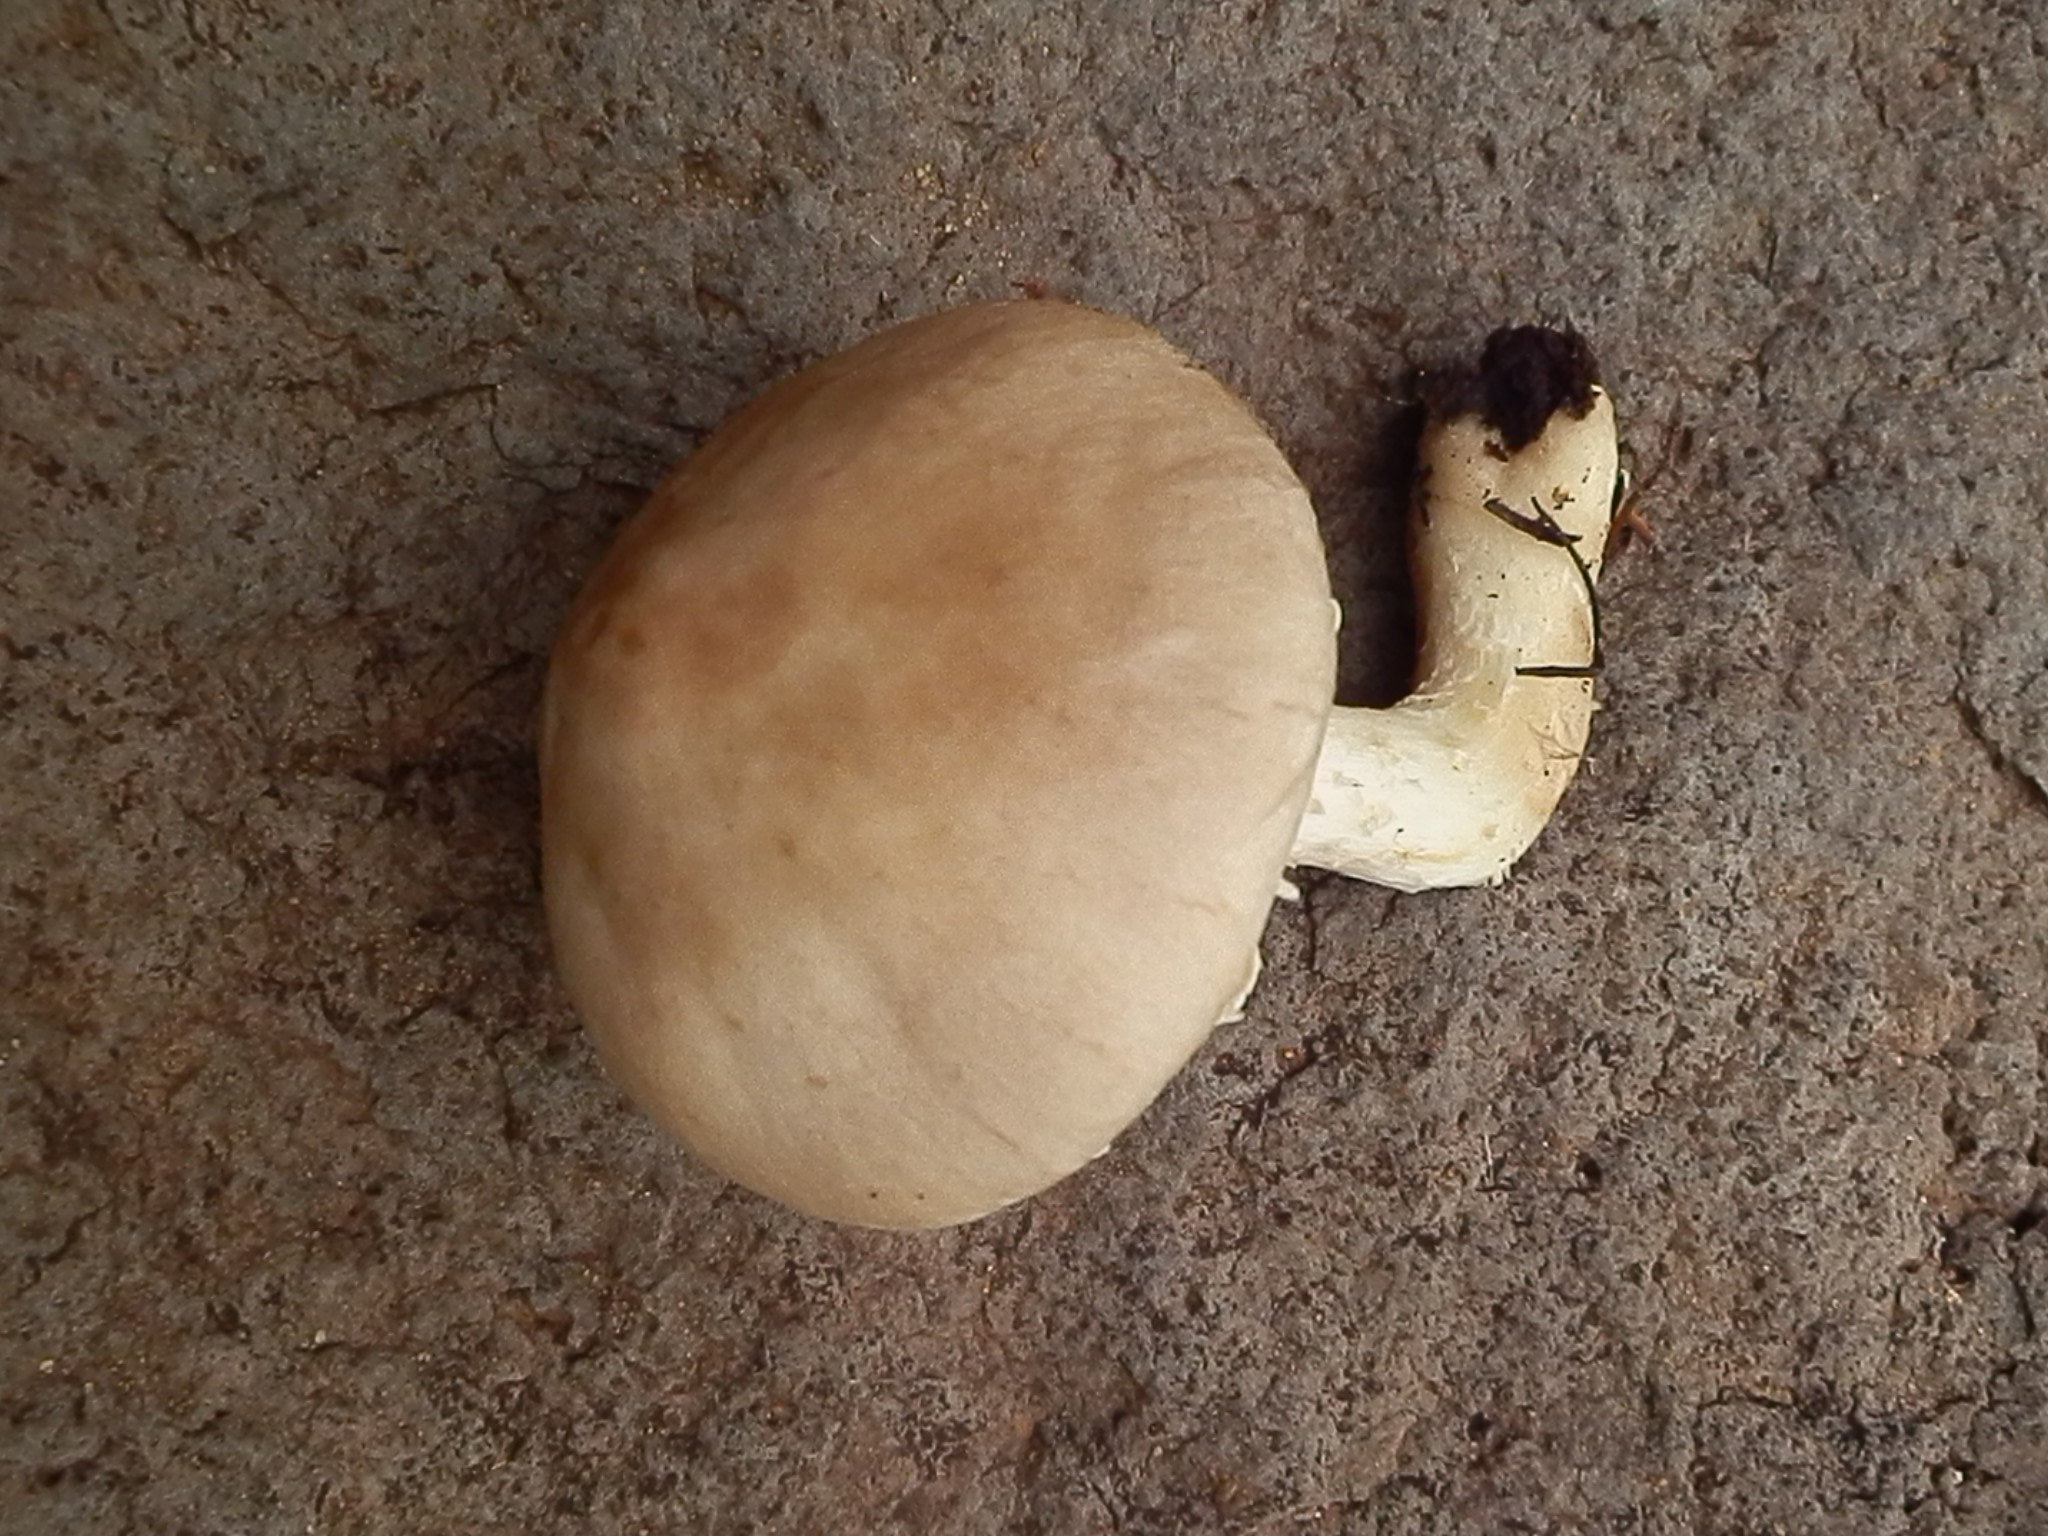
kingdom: Fungi
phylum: Basidiomycota
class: Agaricomycetes
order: Agaricales
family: Agaricaceae
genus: Floccularia
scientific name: Floccularia albolanaripes
